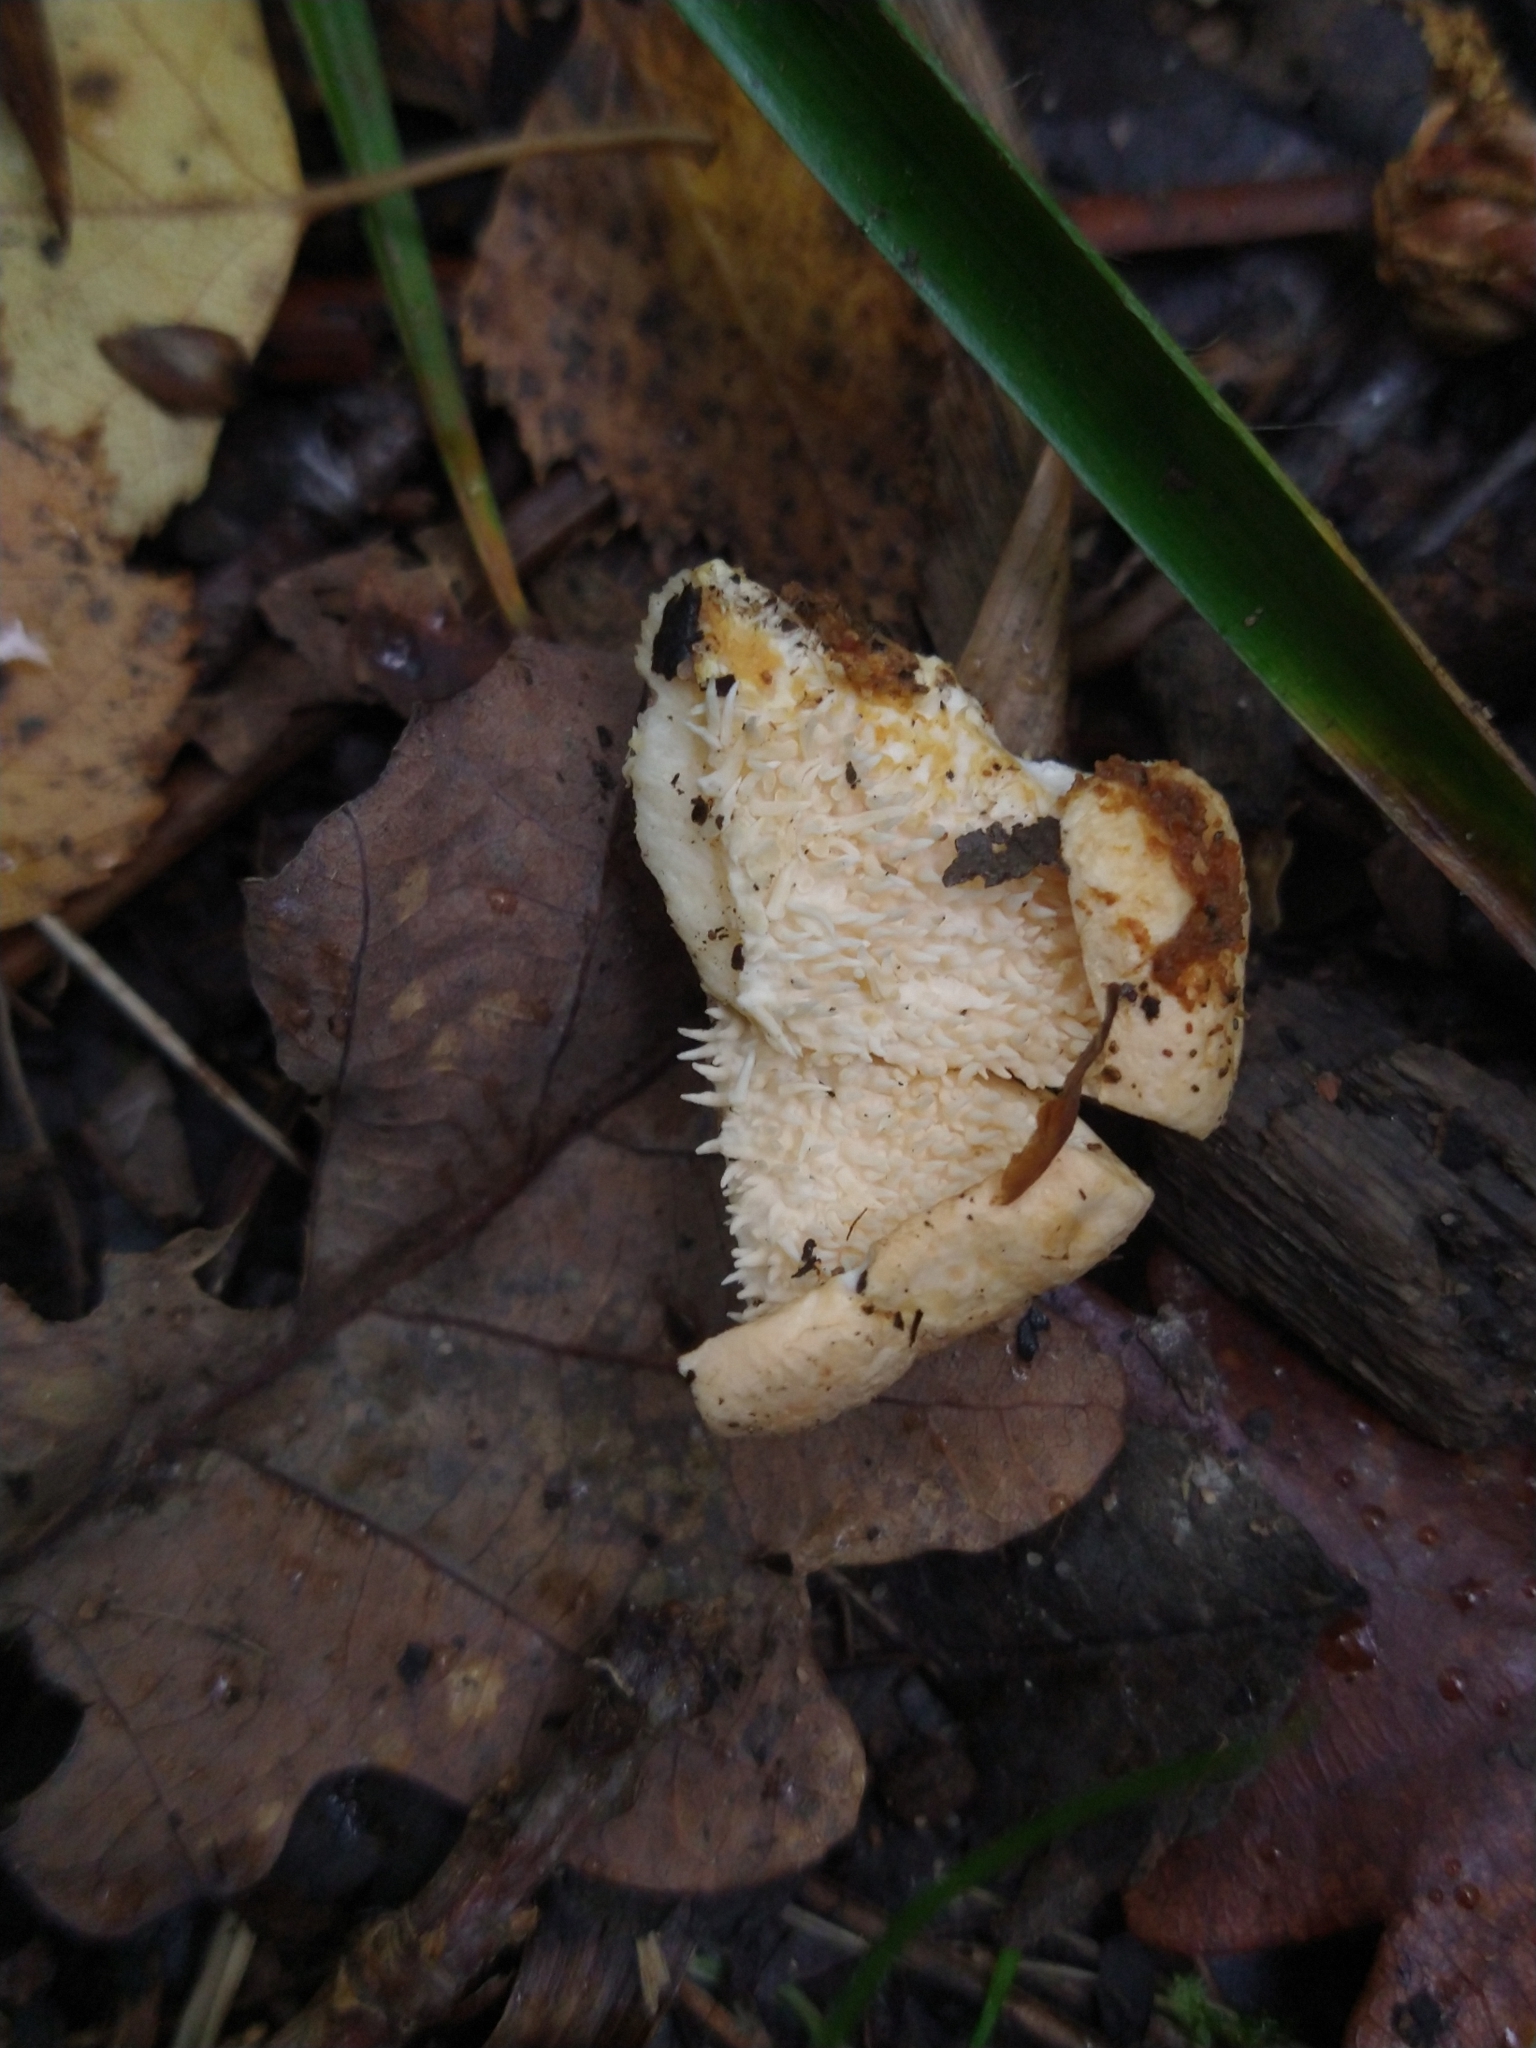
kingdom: Fungi
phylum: Basidiomycota
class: Agaricomycetes
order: Cantharellales
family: Hydnaceae
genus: Hydnum
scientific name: Hydnum repandum
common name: Wood hedgehog
